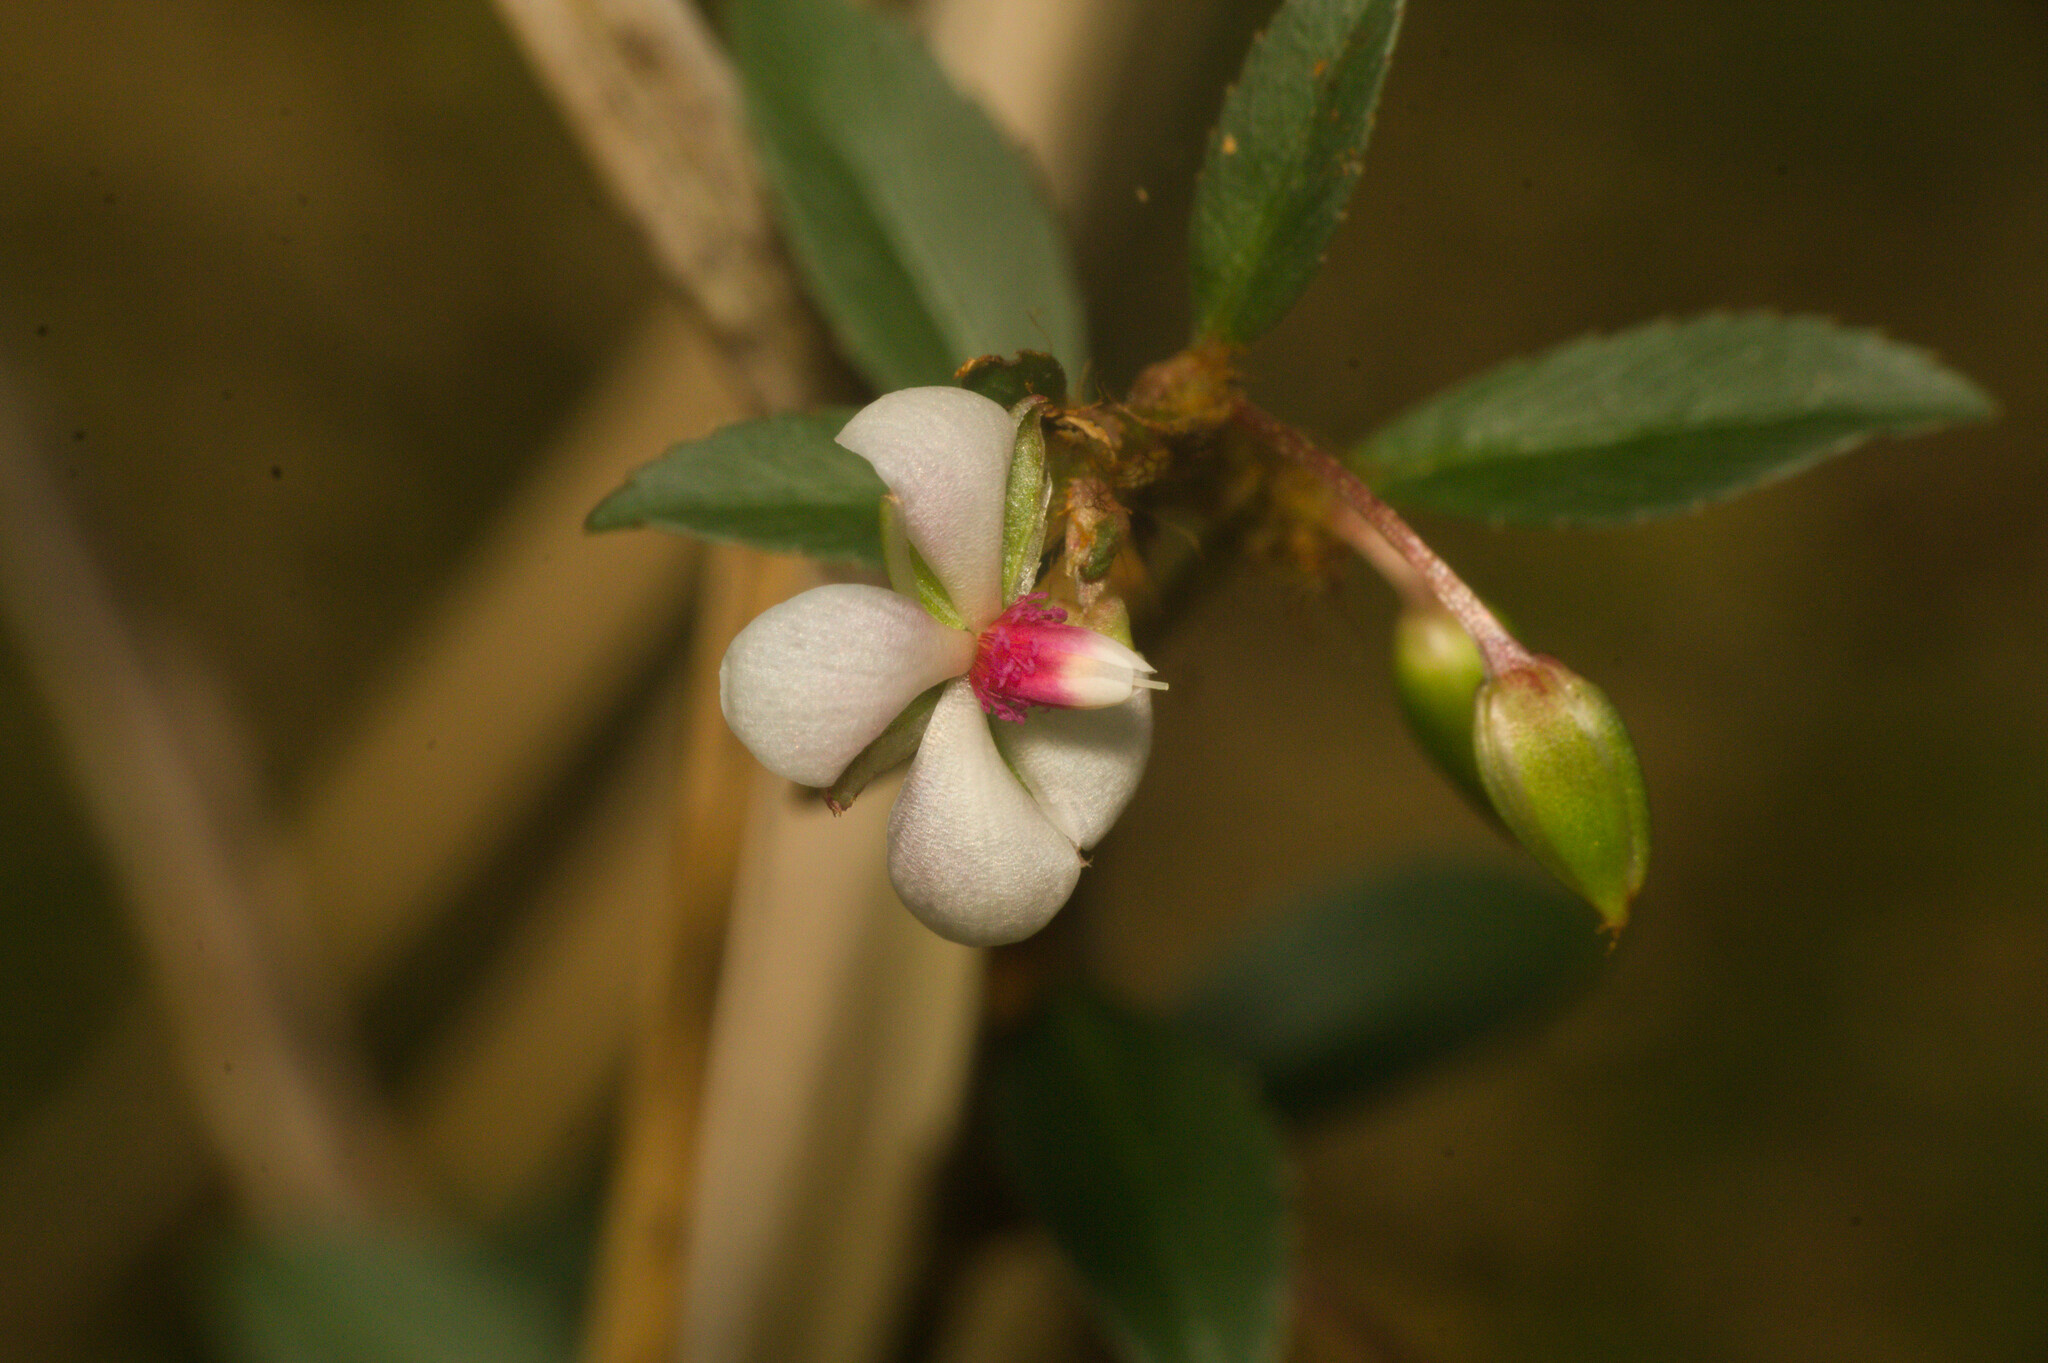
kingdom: Plantae
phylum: Tracheophyta
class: Magnoliopsida
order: Malpighiales
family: Ochnaceae
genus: Sauvagesia
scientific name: Sauvagesia erecta
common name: Creole tea
